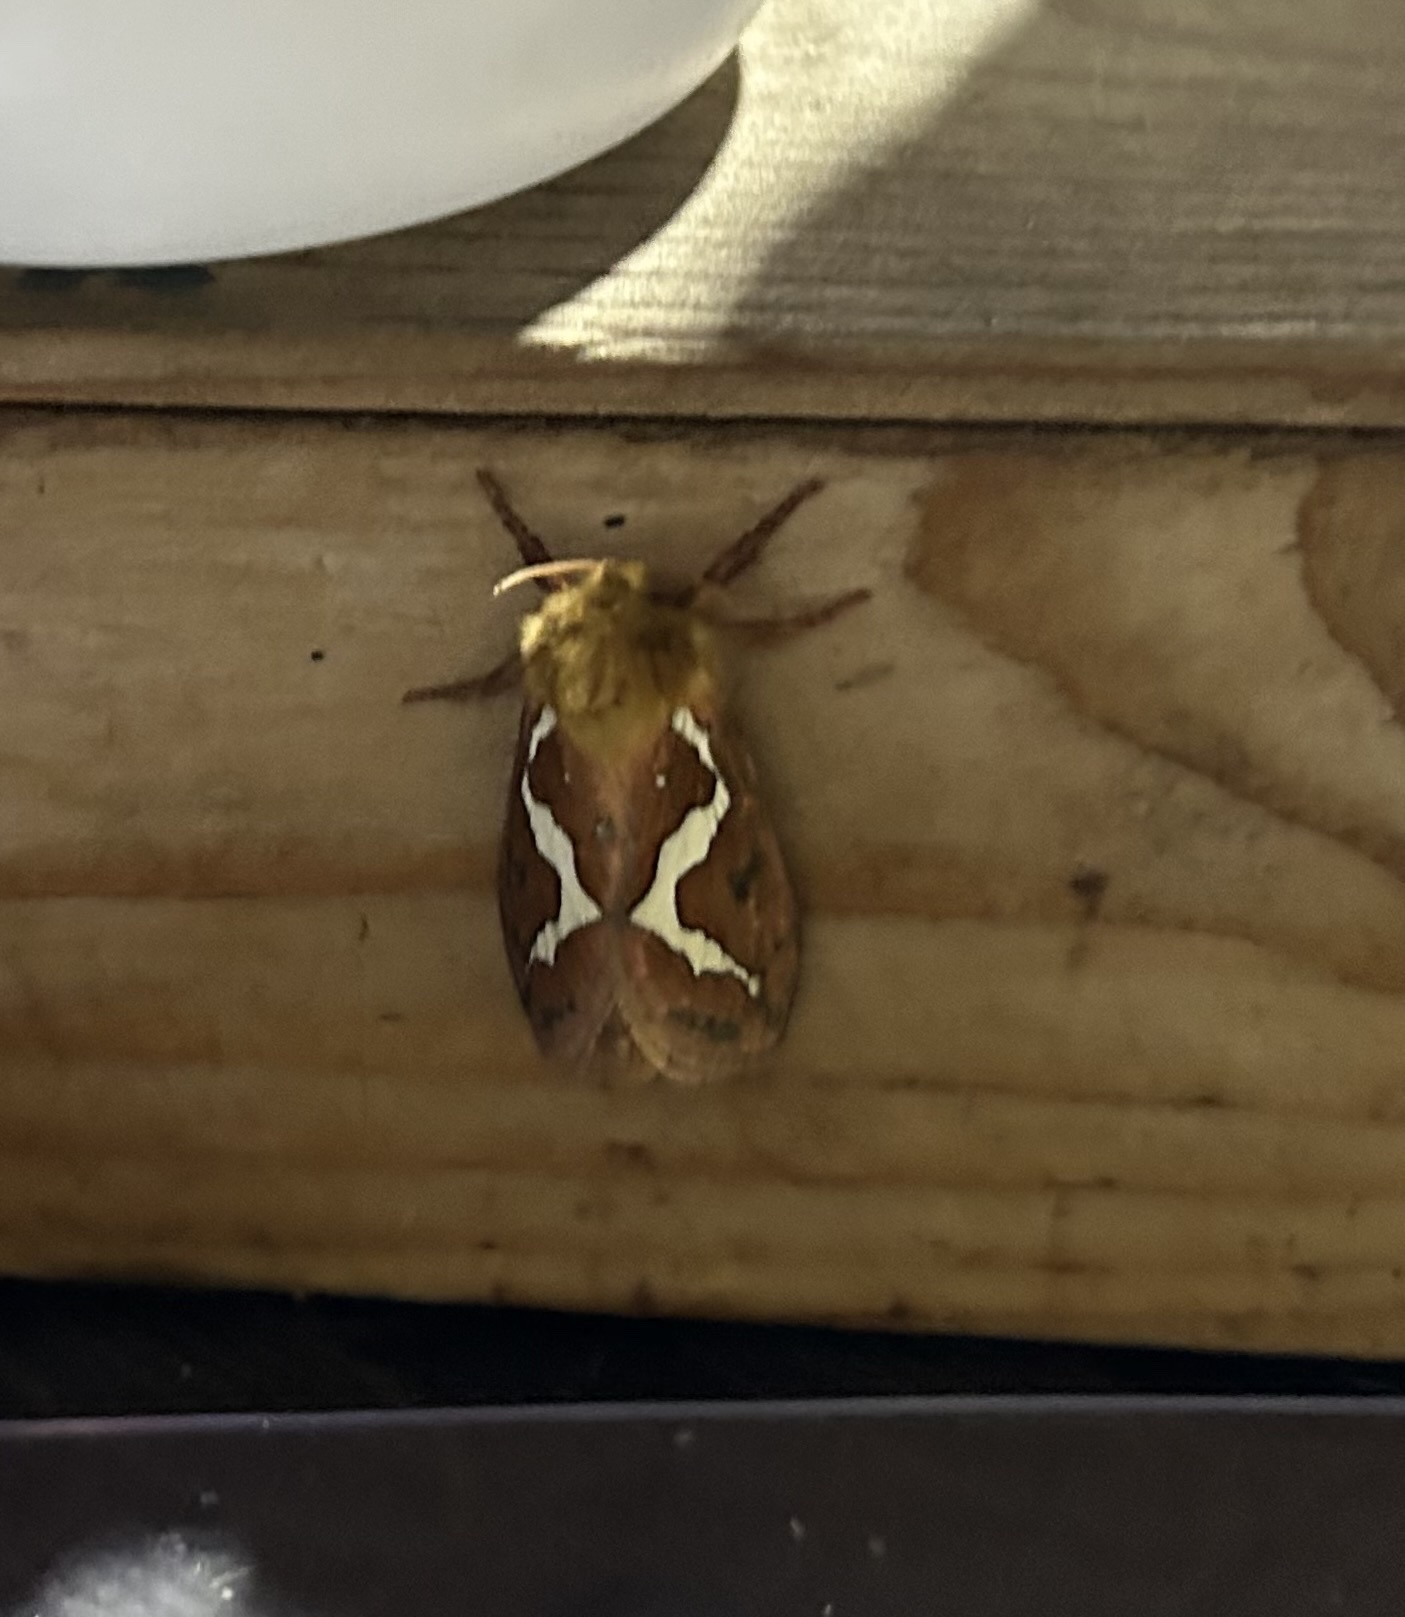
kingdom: Animalia
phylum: Arthropoda
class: Insecta
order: Lepidoptera
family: Hepialidae
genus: Gazoryctra
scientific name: Gazoryctra mathewi
